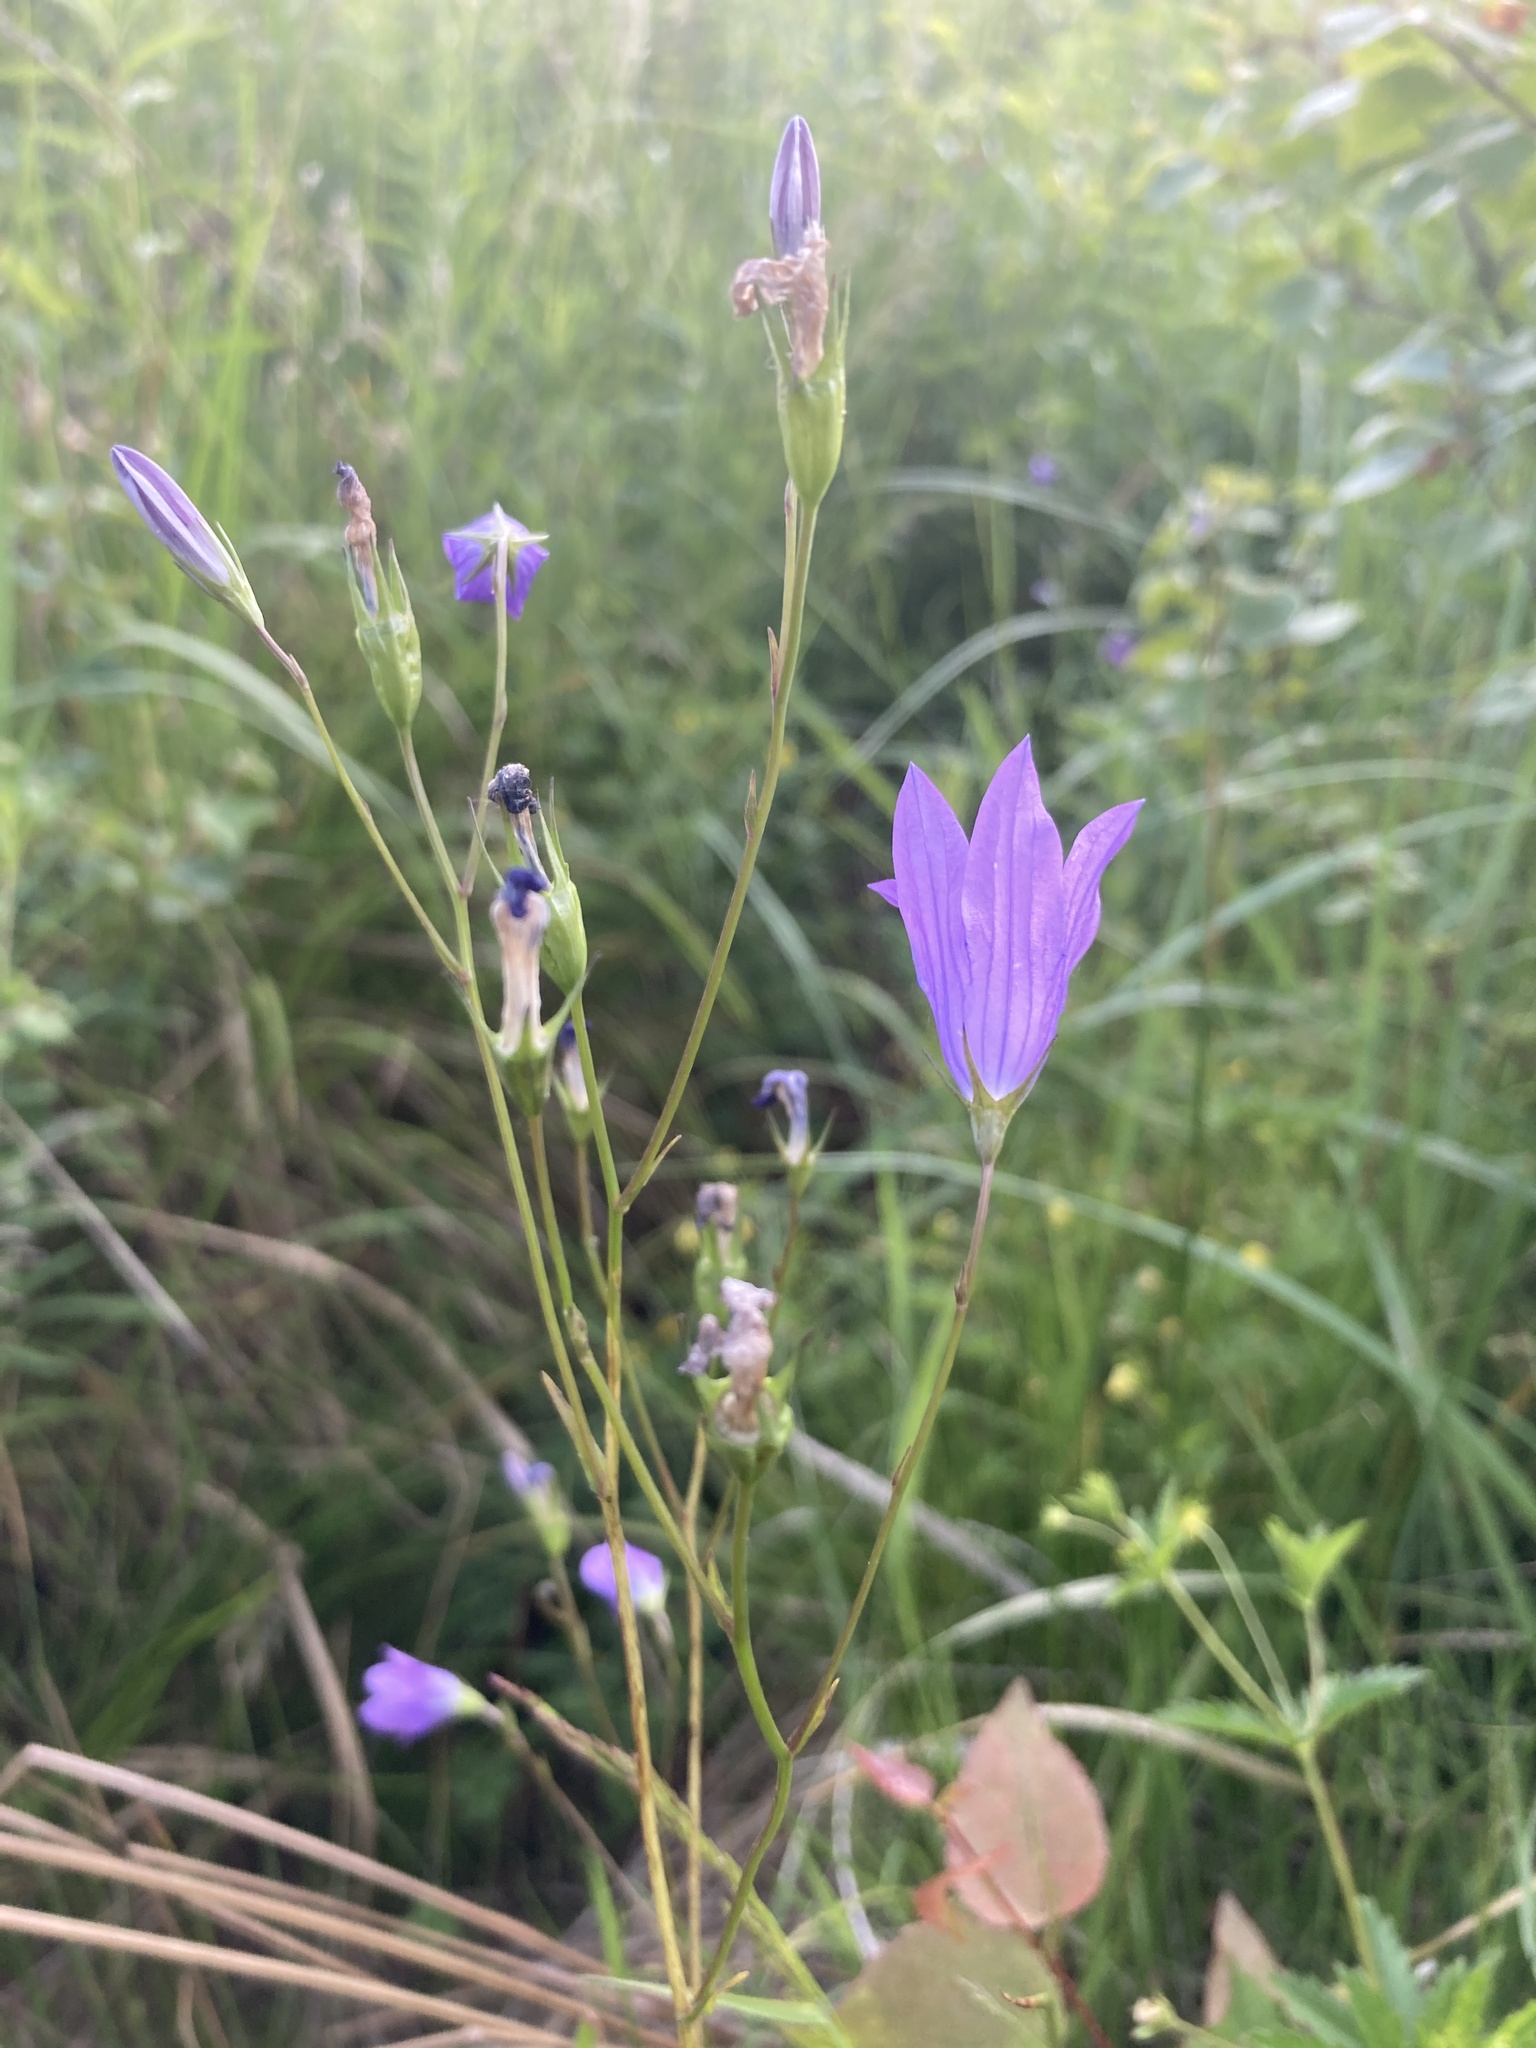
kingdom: Plantae
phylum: Tracheophyta
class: Magnoliopsida
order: Asterales
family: Campanulaceae
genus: Campanula
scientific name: Campanula patula
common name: Spreading bellflower
